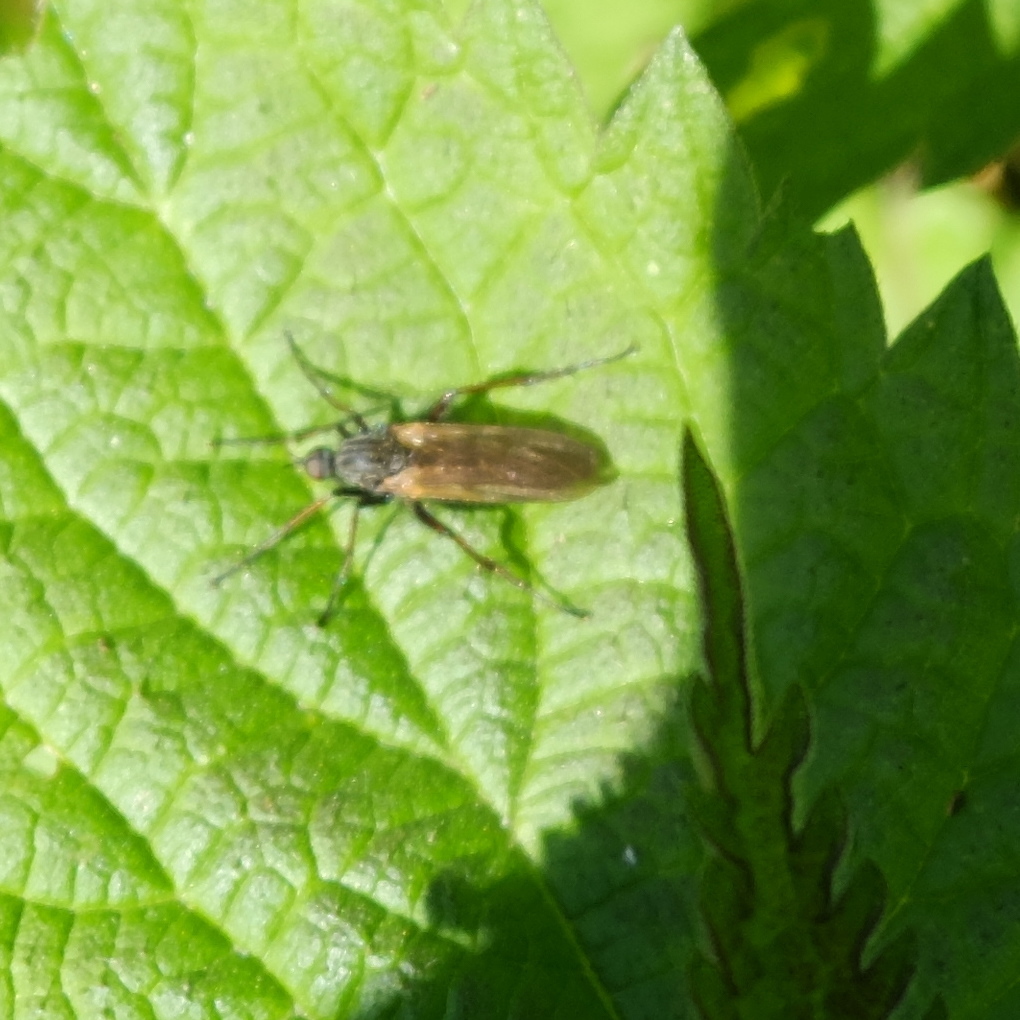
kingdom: Animalia
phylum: Arthropoda
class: Insecta
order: Diptera
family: Empididae
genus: Empis
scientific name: Empis tessellata
